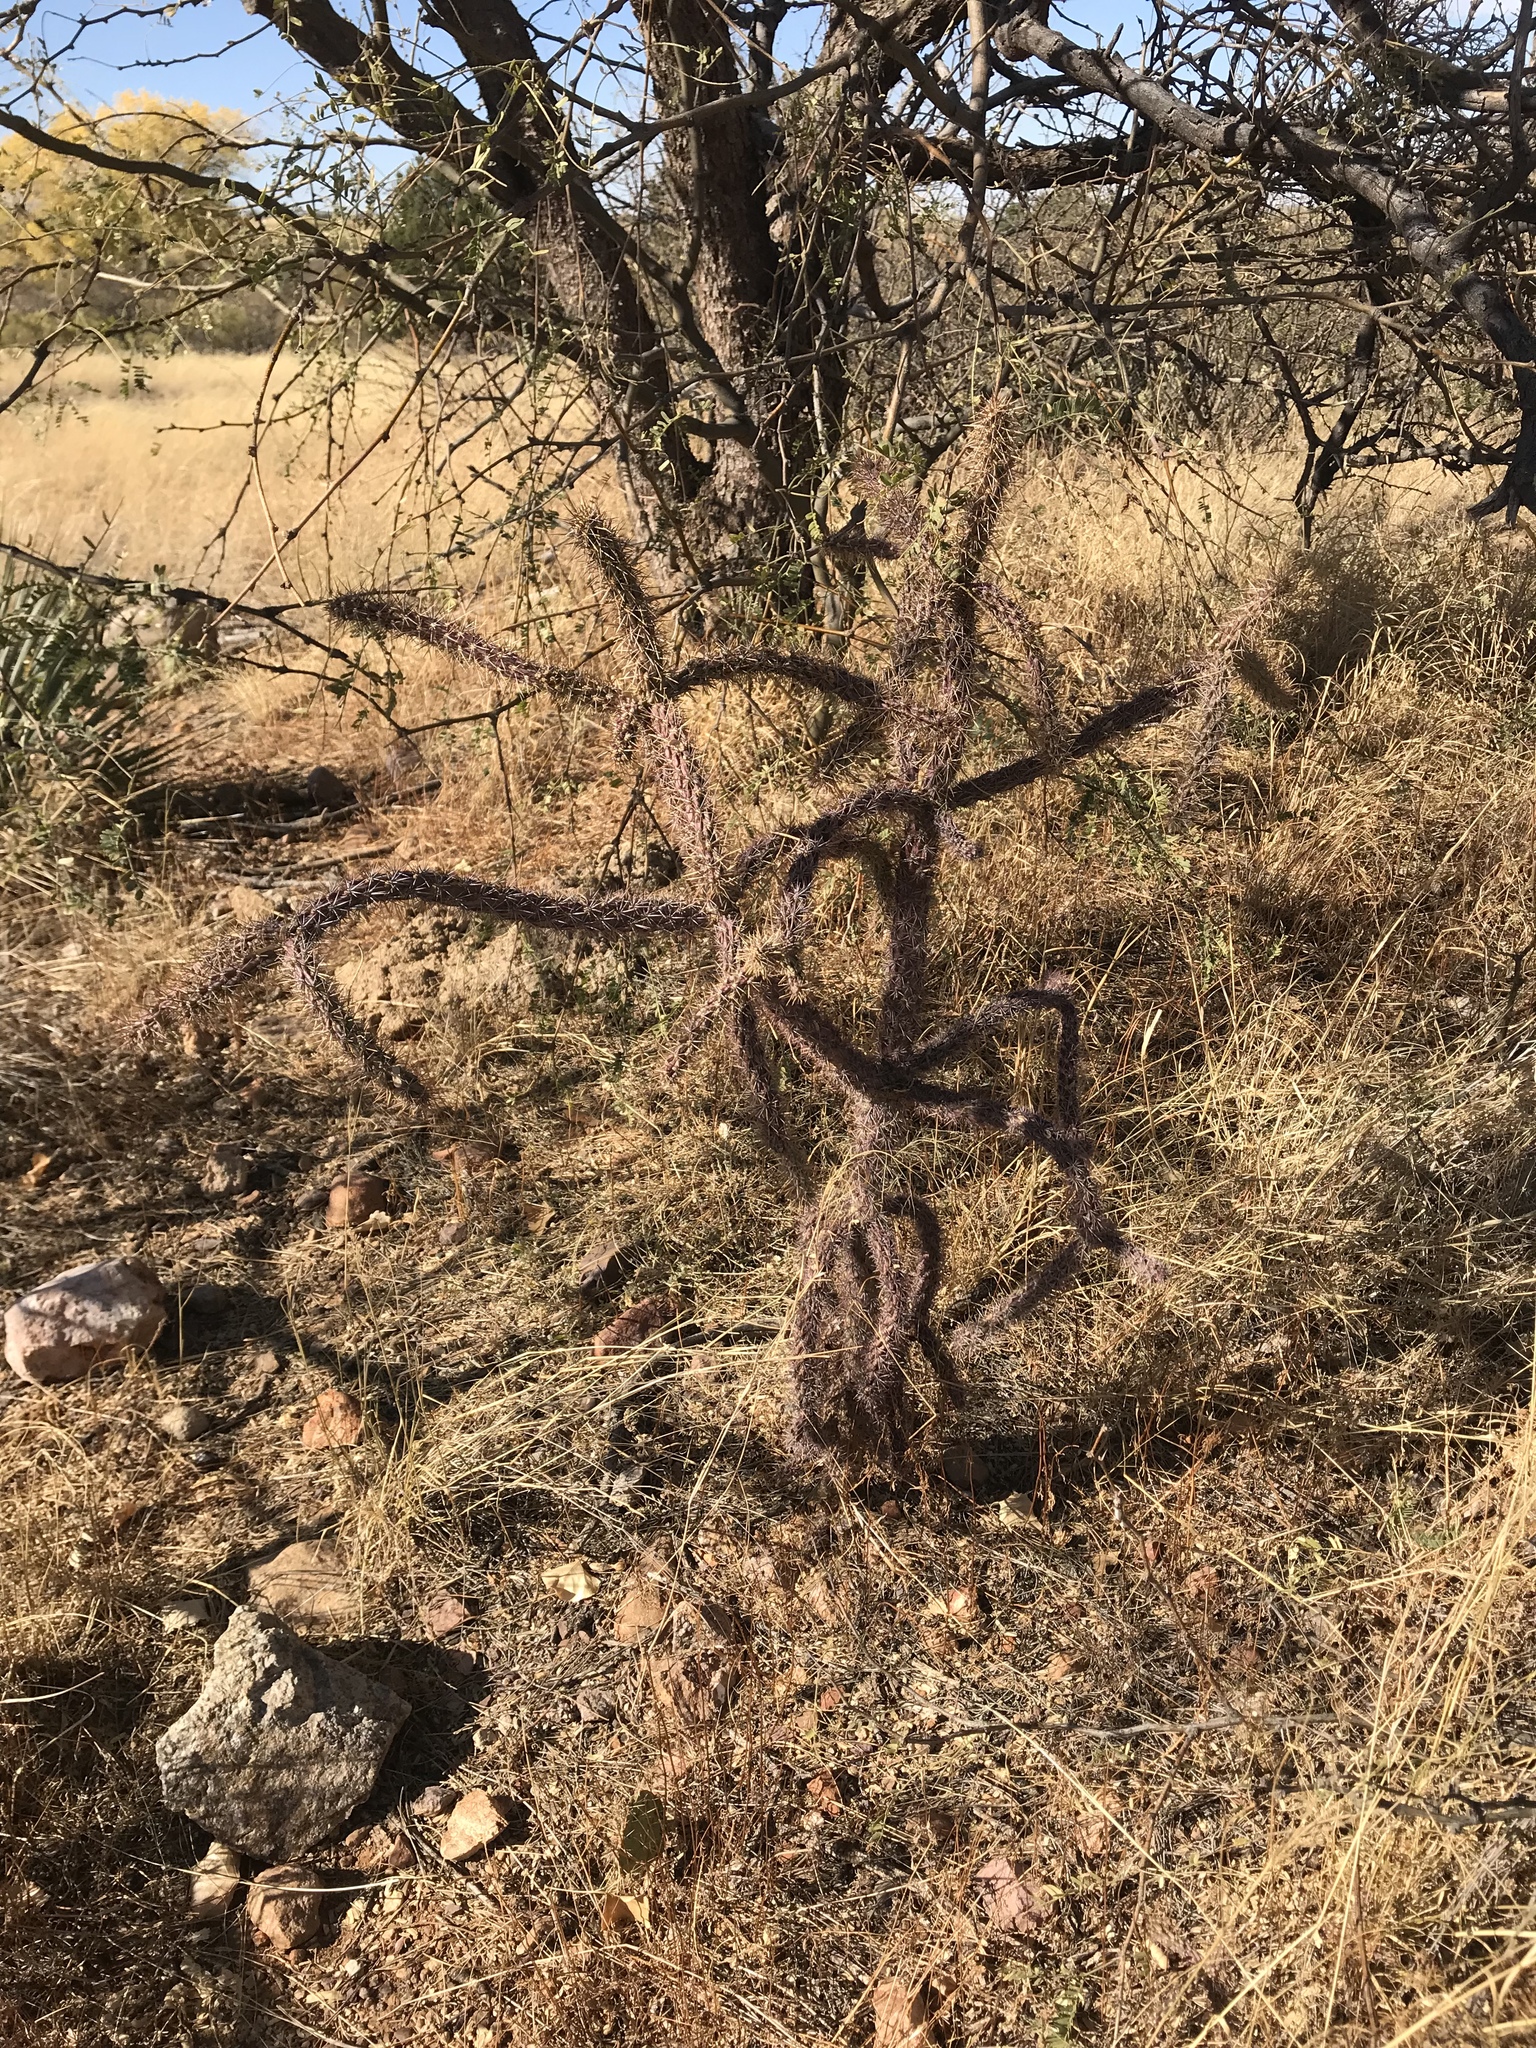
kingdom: Plantae
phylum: Tracheophyta
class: Magnoliopsida
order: Caryophyllales
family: Cactaceae
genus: Cylindropuntia
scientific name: Cylindropuntia imbricata
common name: Candelabrum cactus
